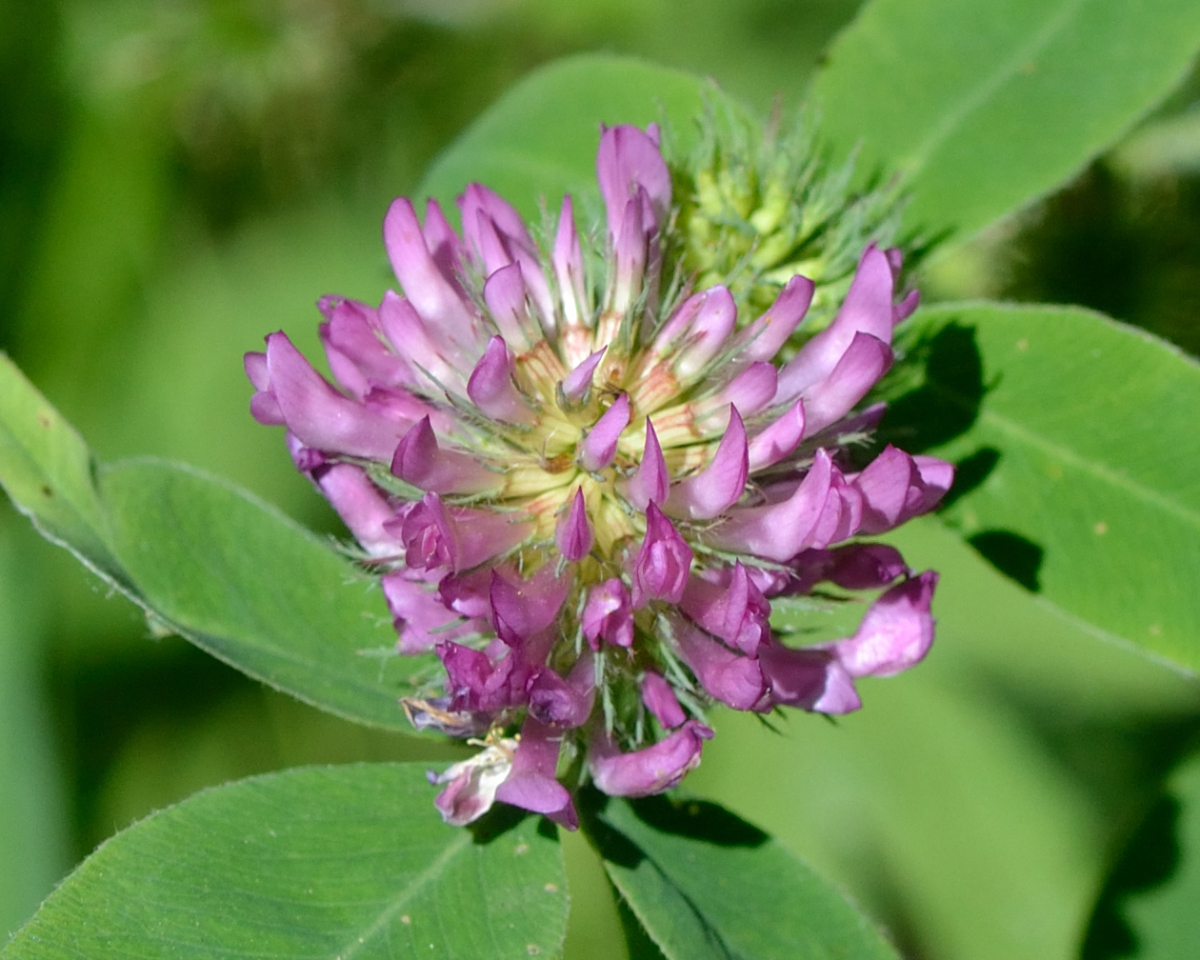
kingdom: Plantae
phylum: Tracheophyta
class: Magnoliopsida
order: Fabales
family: Fabaceae
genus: Trifolium
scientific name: Trifolium medium
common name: Zigzag clover
